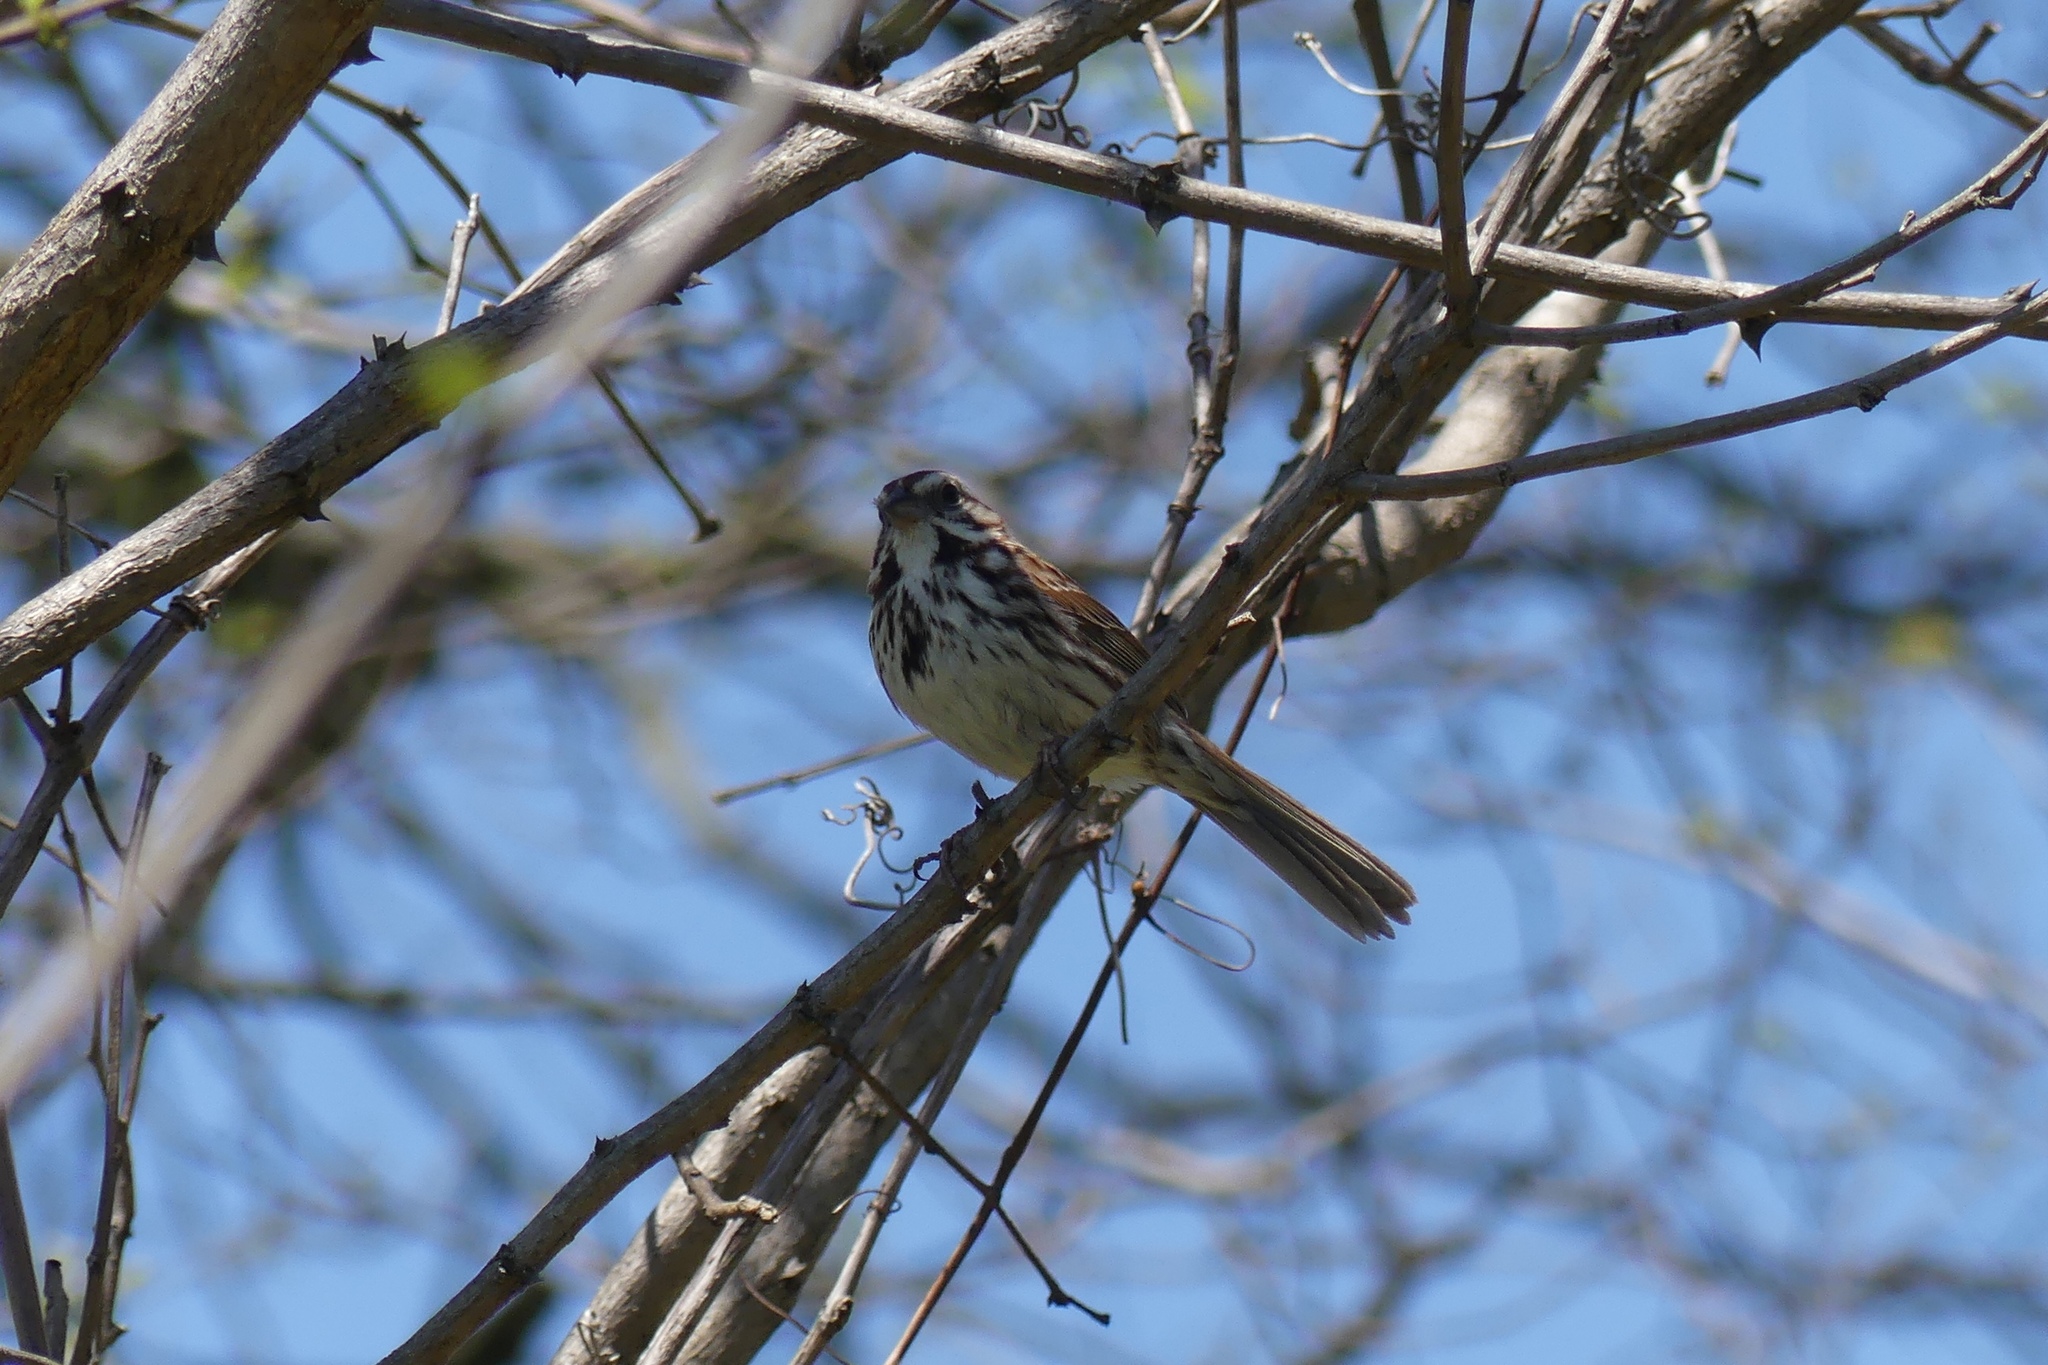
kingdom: Animalia
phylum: Chordata
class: Aves
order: Passeriformes
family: Passerellidae
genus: Melospiza
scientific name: Melospiza melodia
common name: Song sparrow
